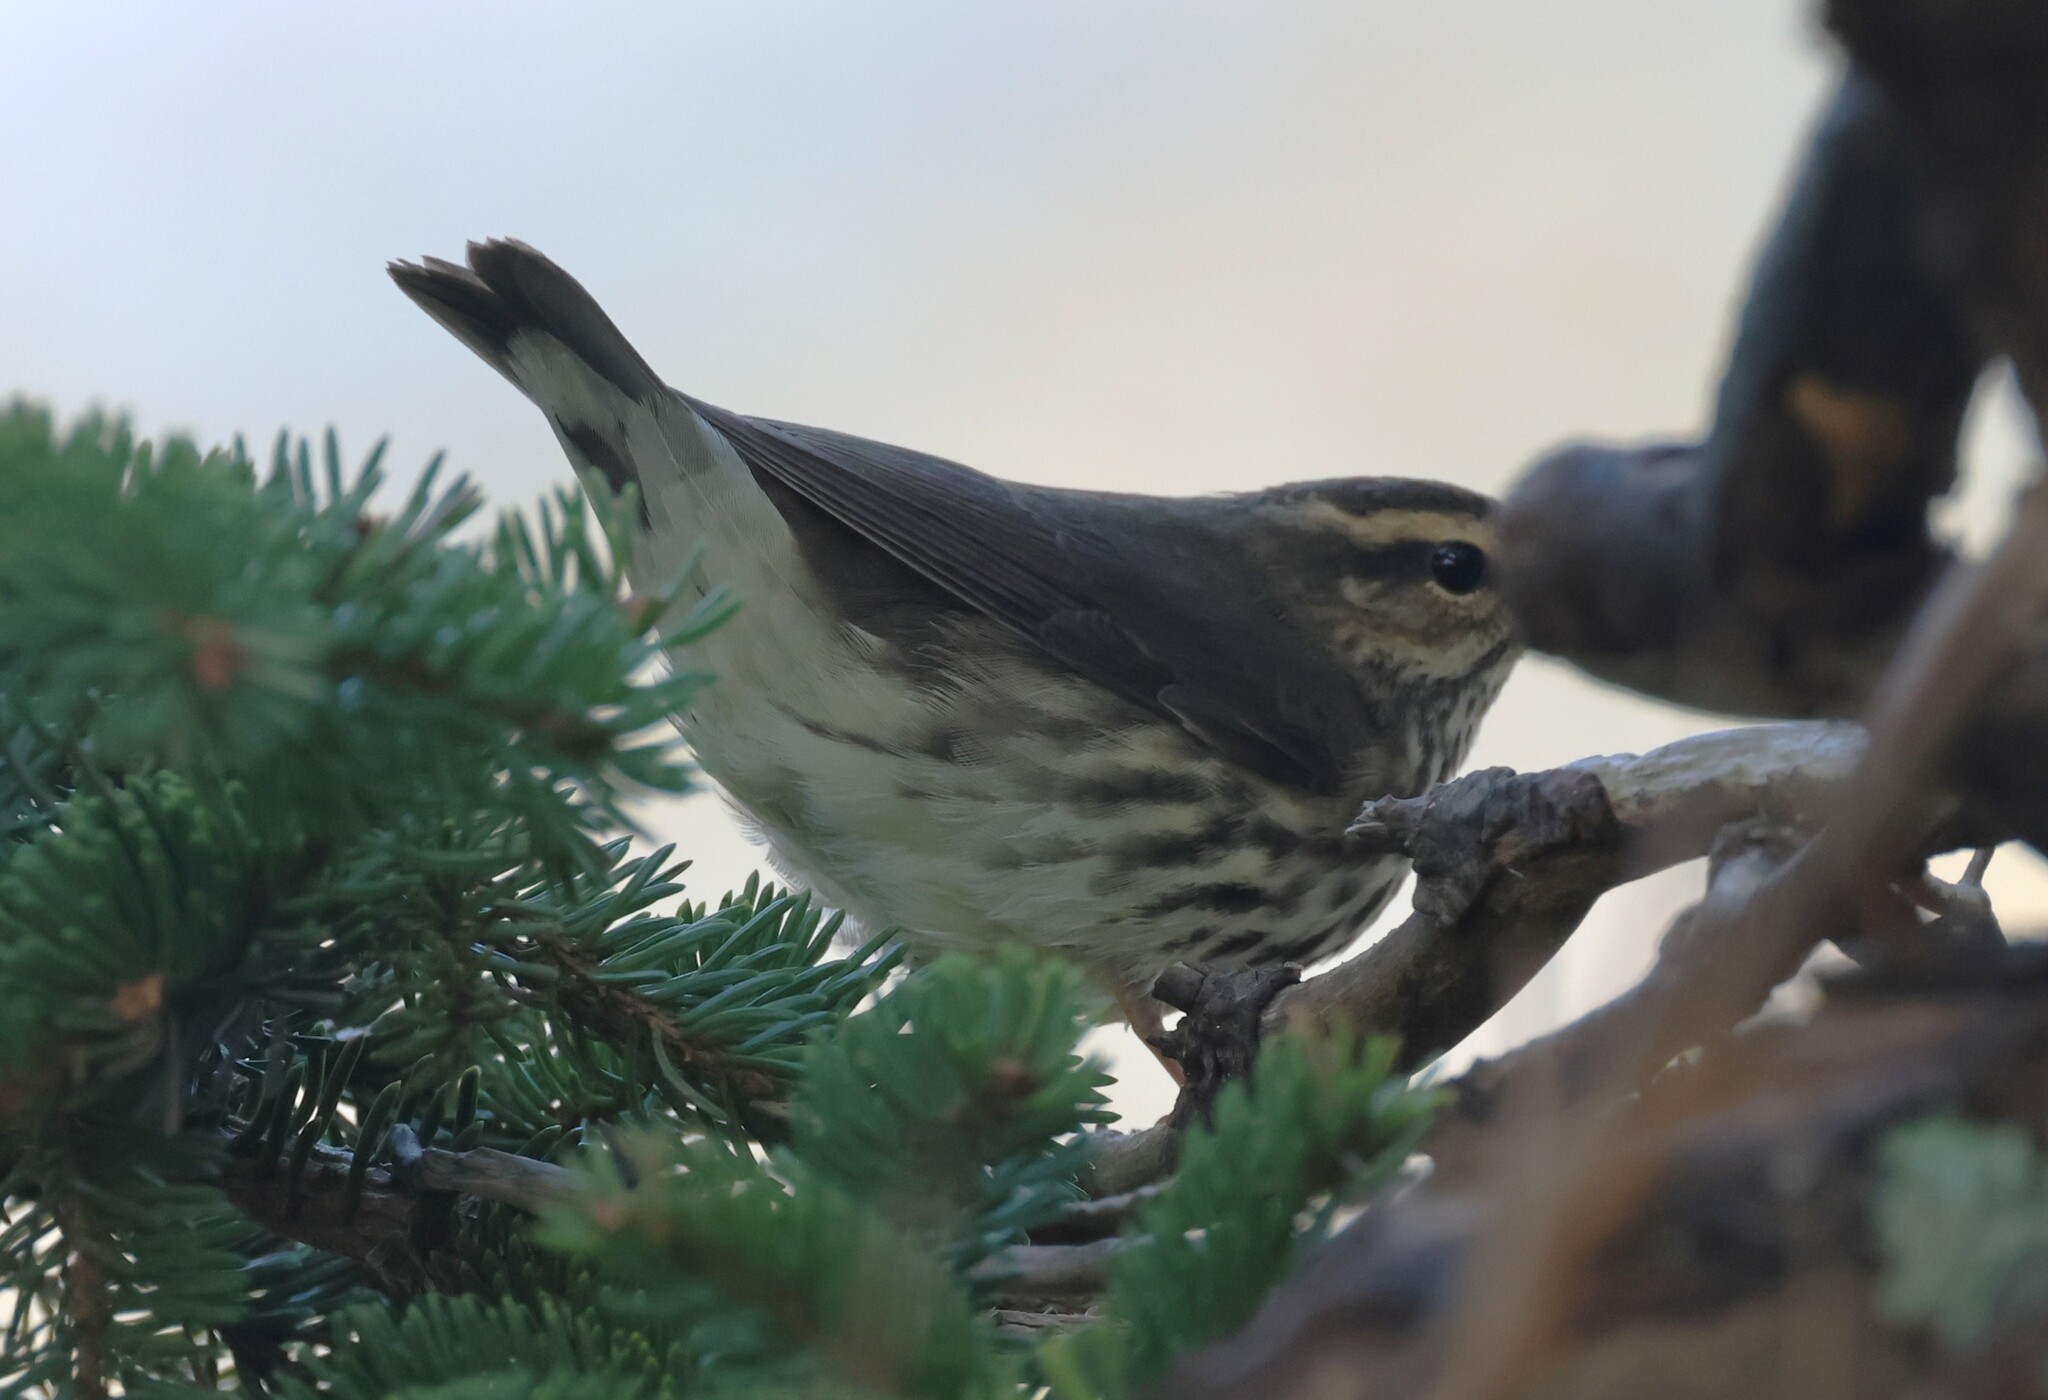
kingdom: Animalia
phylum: Chordata
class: Aves
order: Passeriformes
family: Parulidae
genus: Parkesia
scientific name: Parkesia noveboracensis
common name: Northern waterthrush
